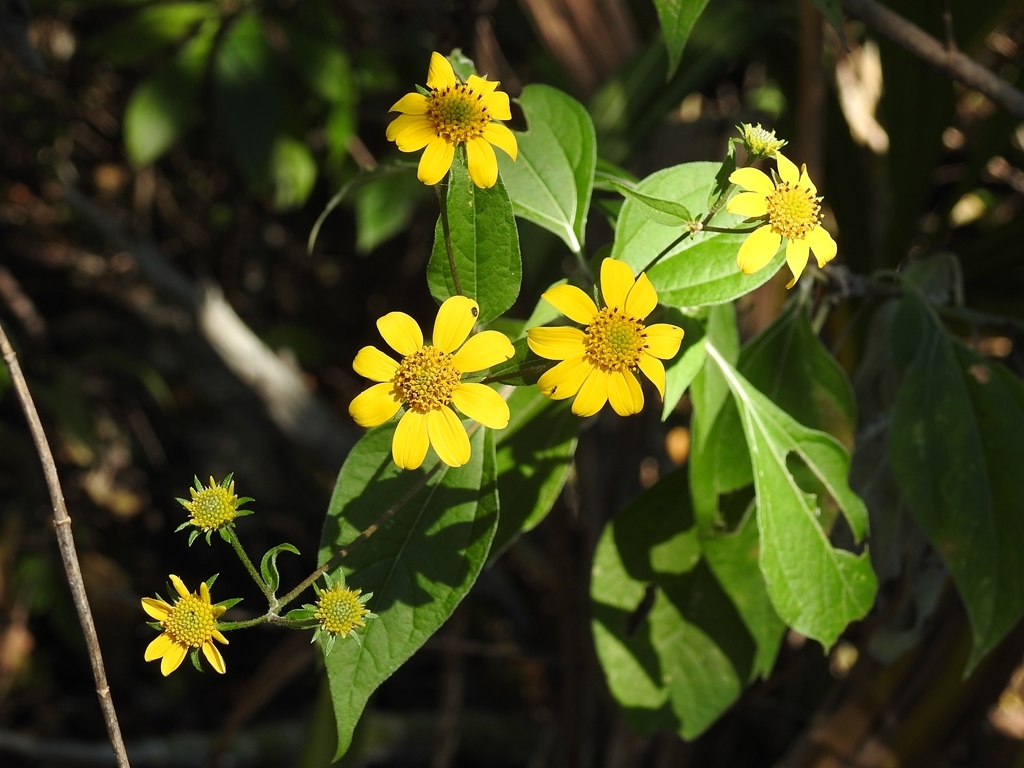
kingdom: Plantae
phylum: Tracheophyta
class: Magnoliopsida
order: Asterales
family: Asteraceae
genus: Verbesina
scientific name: Verbesina hypoglauca
